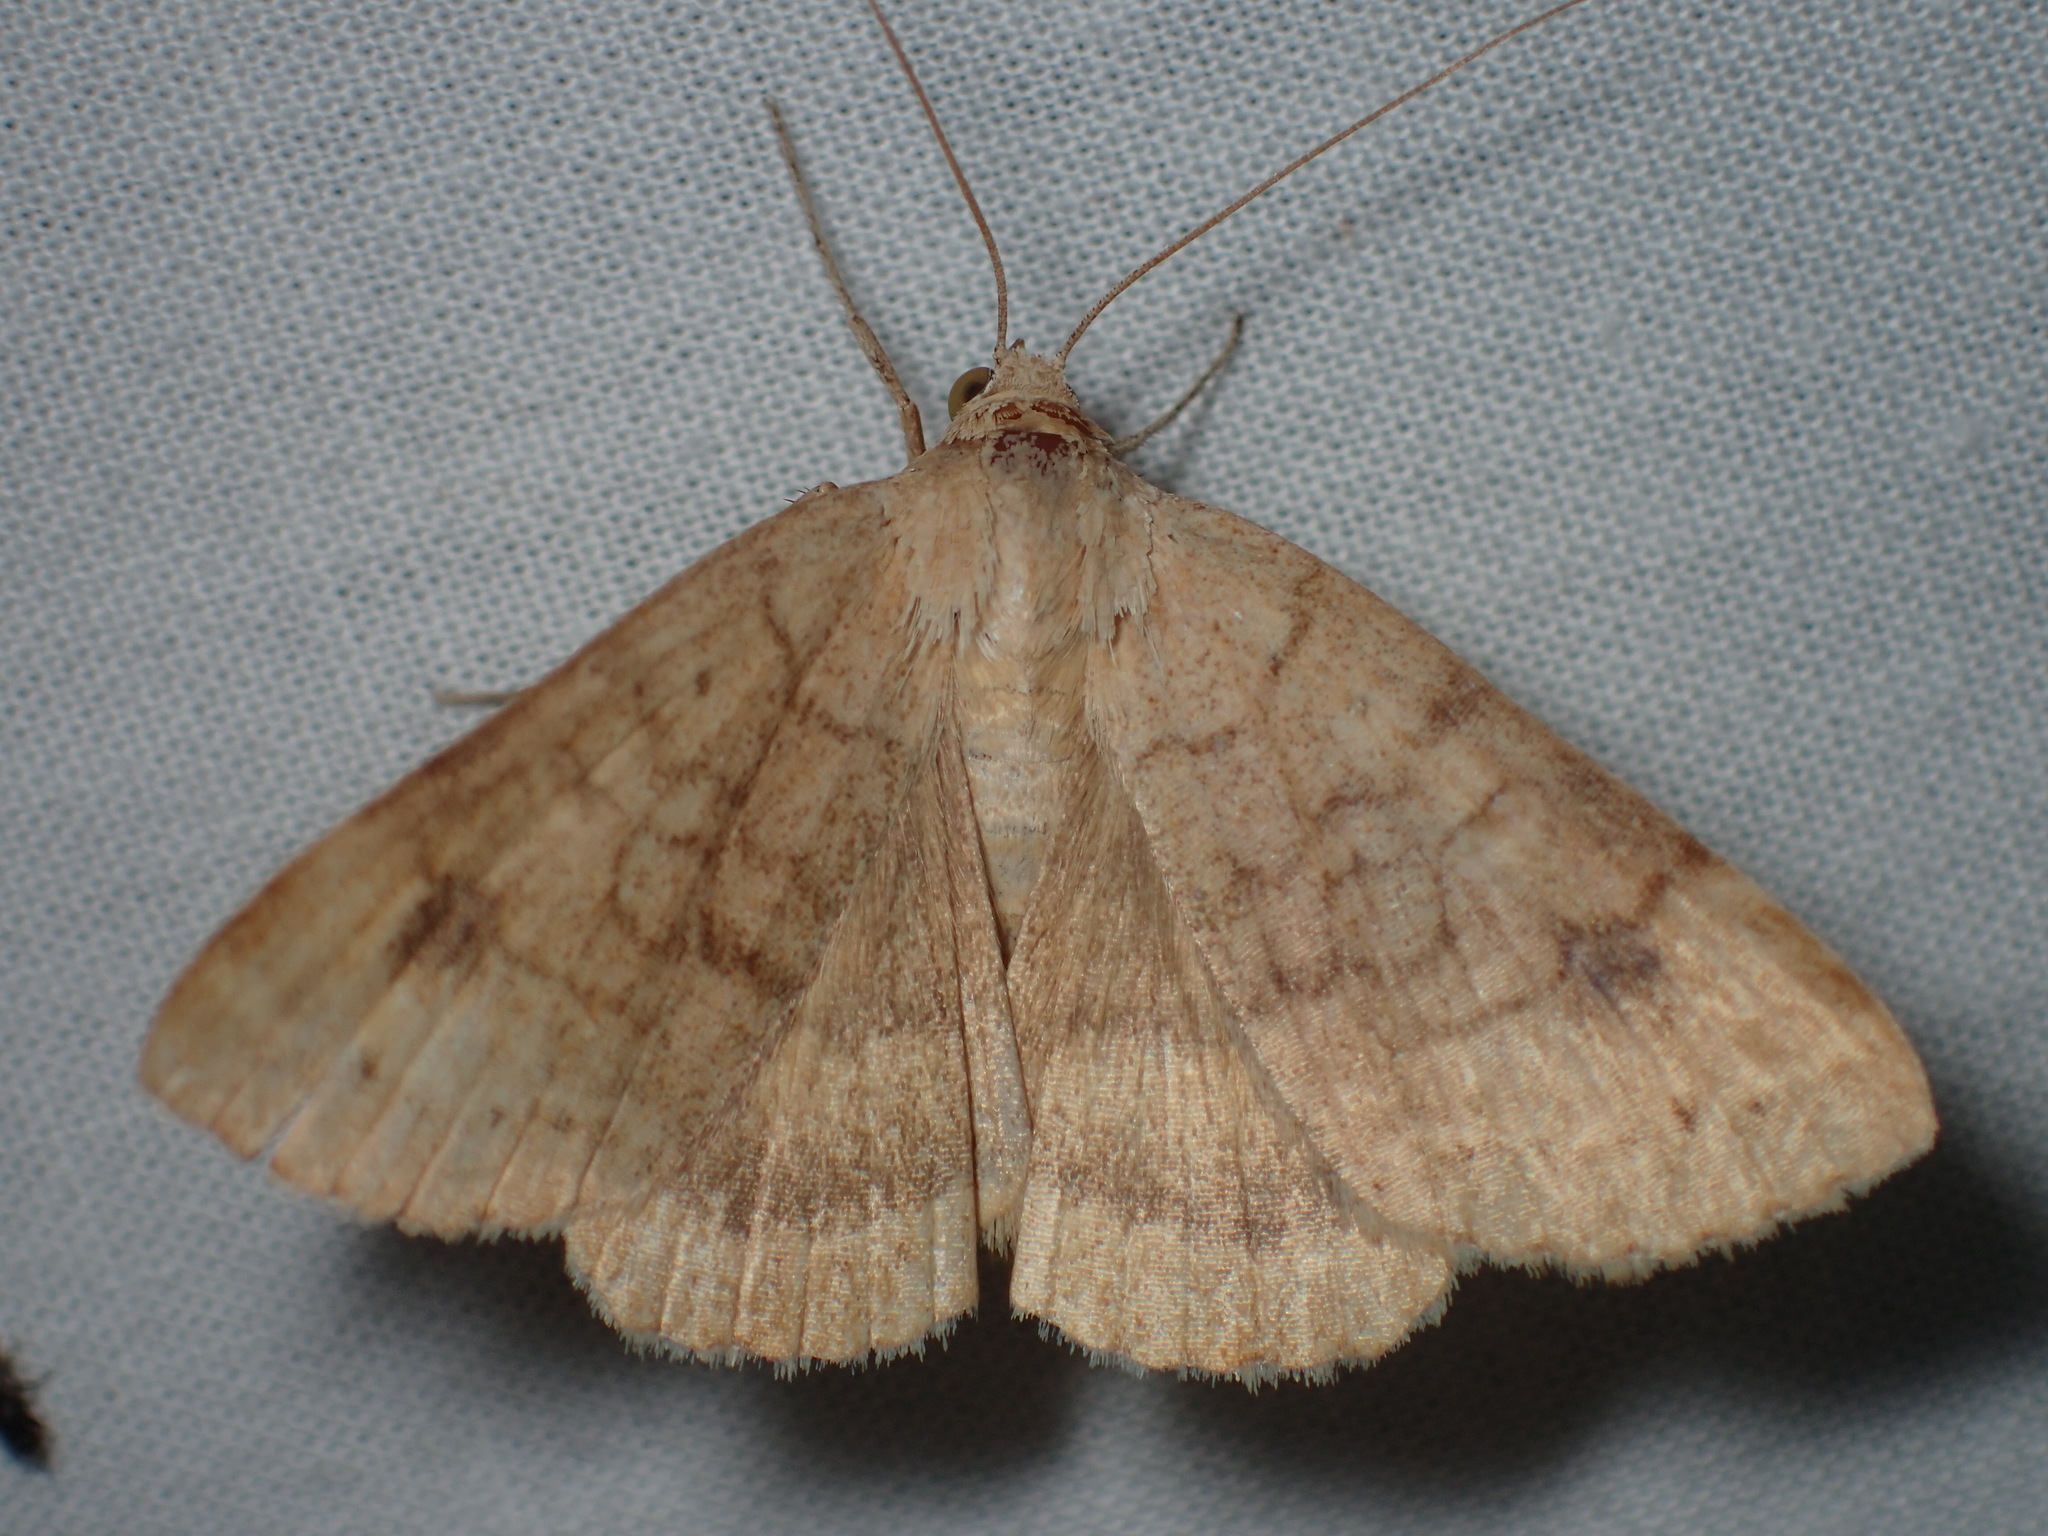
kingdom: Animalia
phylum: Arthropoda
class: Insecta
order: Lepidoptera
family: Erebidae
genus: Caenurgia
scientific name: Caenurgia chloropha
